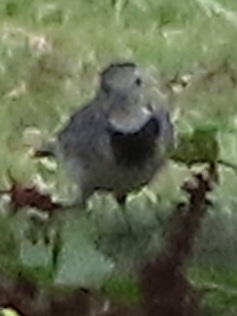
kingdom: Animalia
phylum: Chordata
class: Aves
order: Passeriformes
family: Motacillidae
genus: Motacilla
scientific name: Motacilla alba
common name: White wagtail
